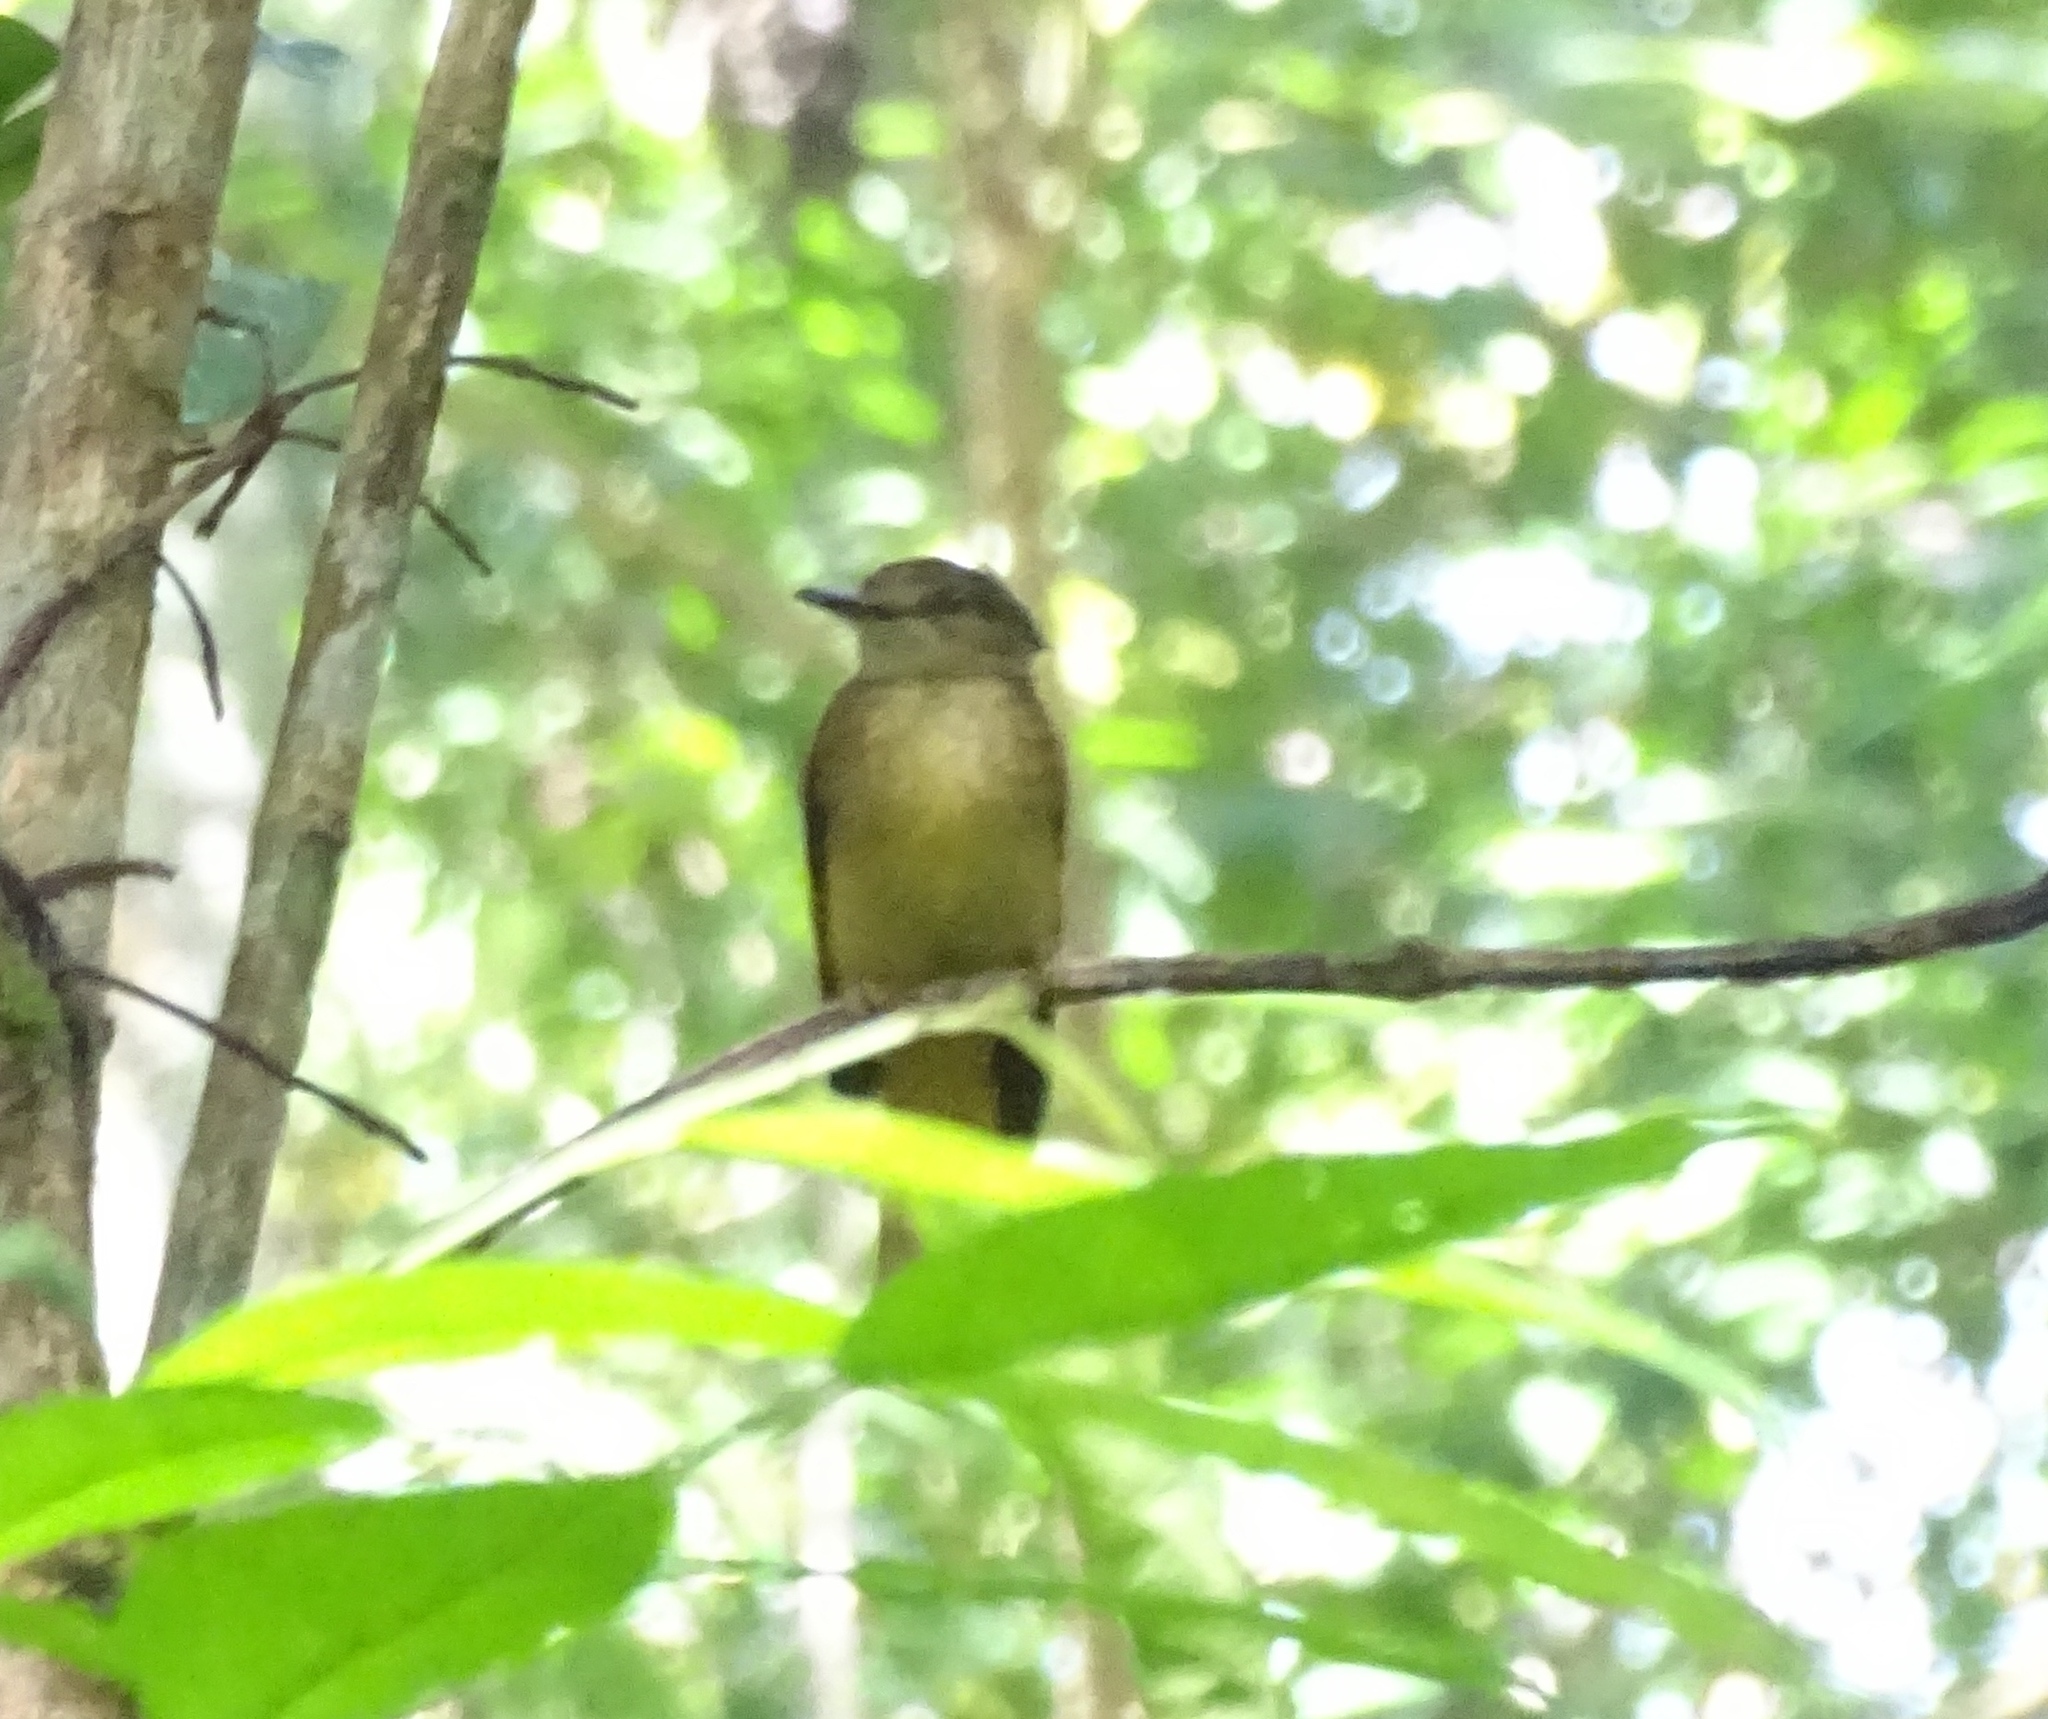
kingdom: Animalia
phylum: Chordata
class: Aves
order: Passeriformes
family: Tyrannidae
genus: Onychorhynchus
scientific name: Onychorhynchus coronatus
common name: Royal flycatcher
